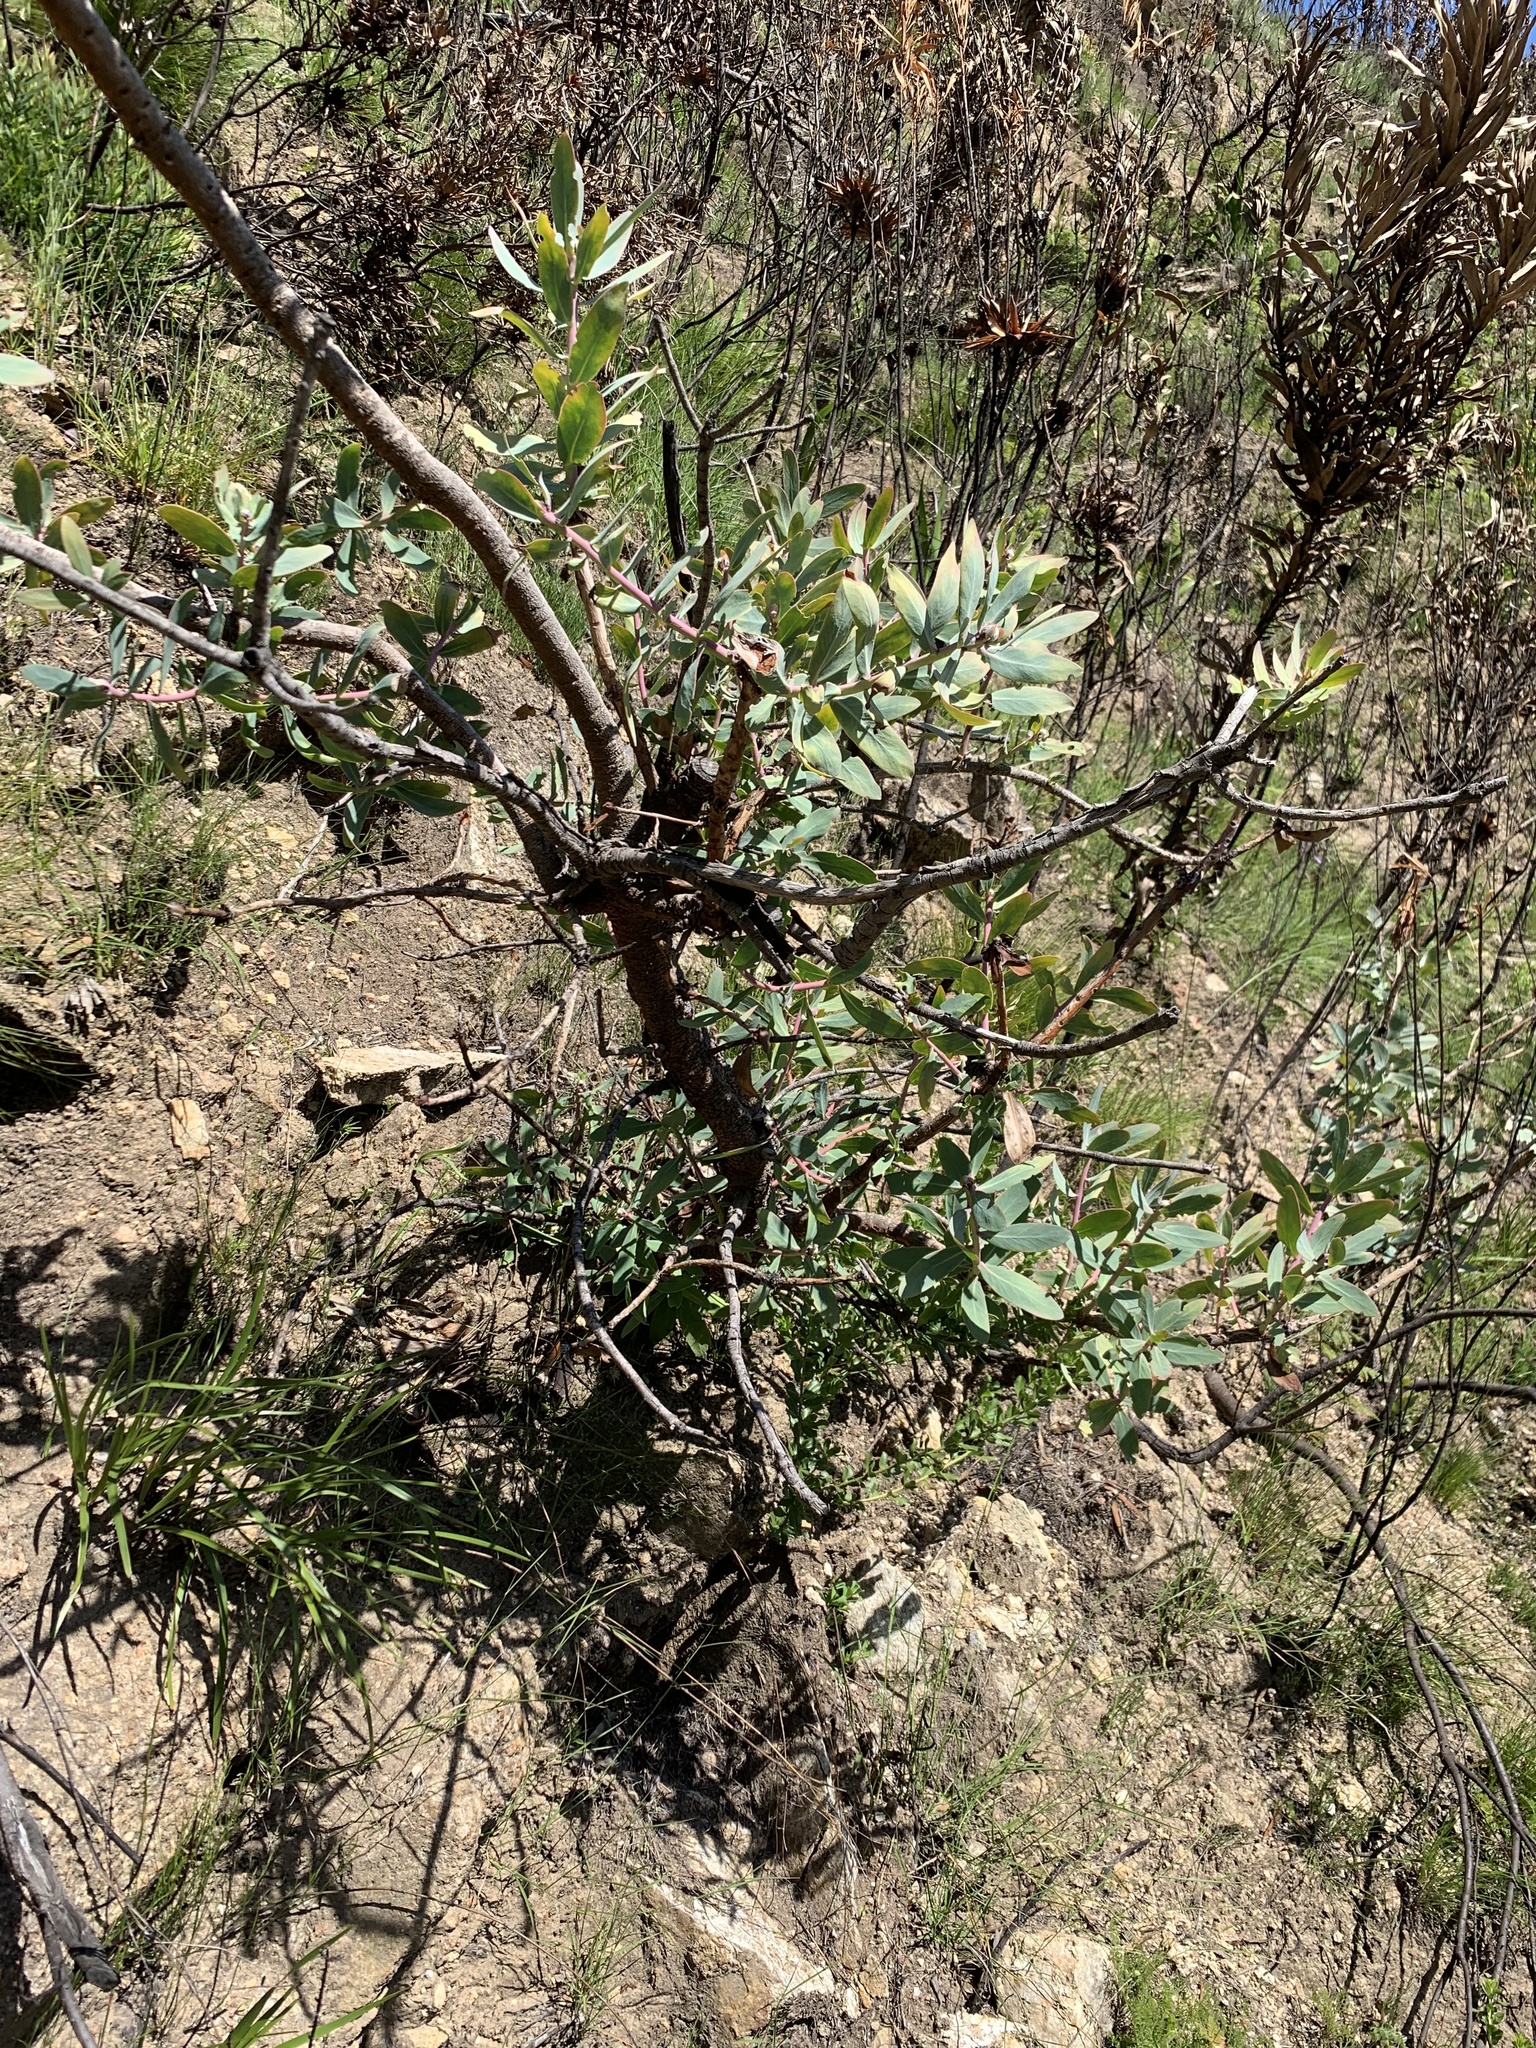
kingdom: Plantae
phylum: Tracheophyta
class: Magnoliopsida
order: Proteales
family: Proteaceae
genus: Protea
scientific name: Protea nitida
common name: Tree protea
